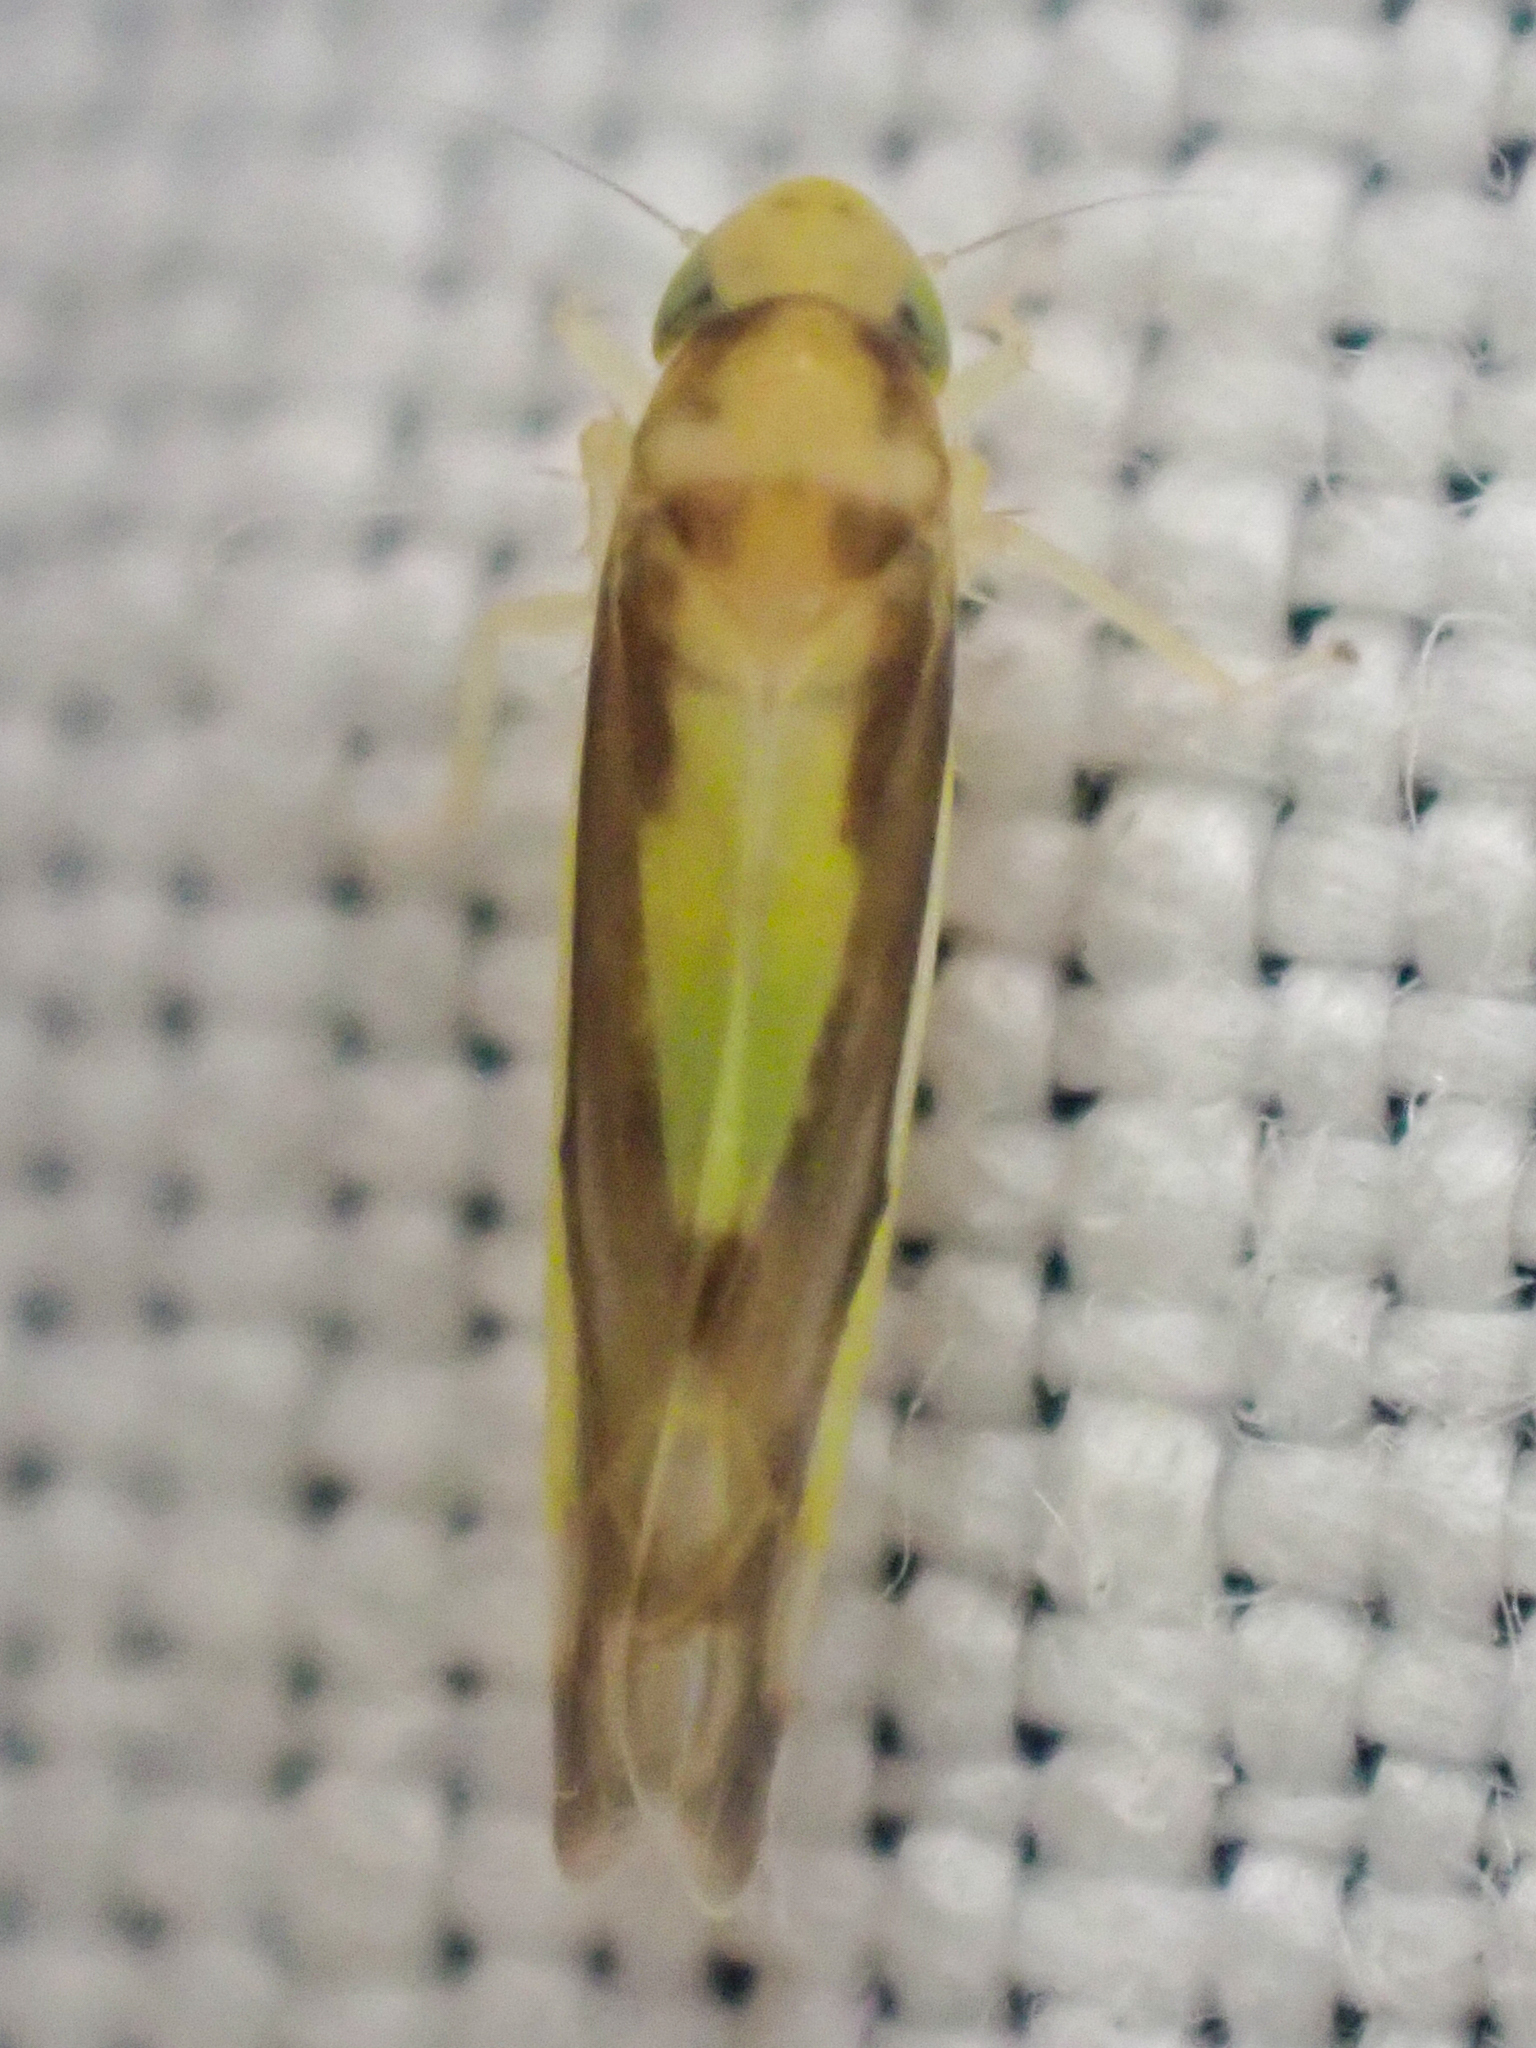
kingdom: Animalia
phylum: Arthropoda
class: Insecta
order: Hemiptera
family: Cicadellidae
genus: Eupteryx
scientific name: Eupteryx furcata
